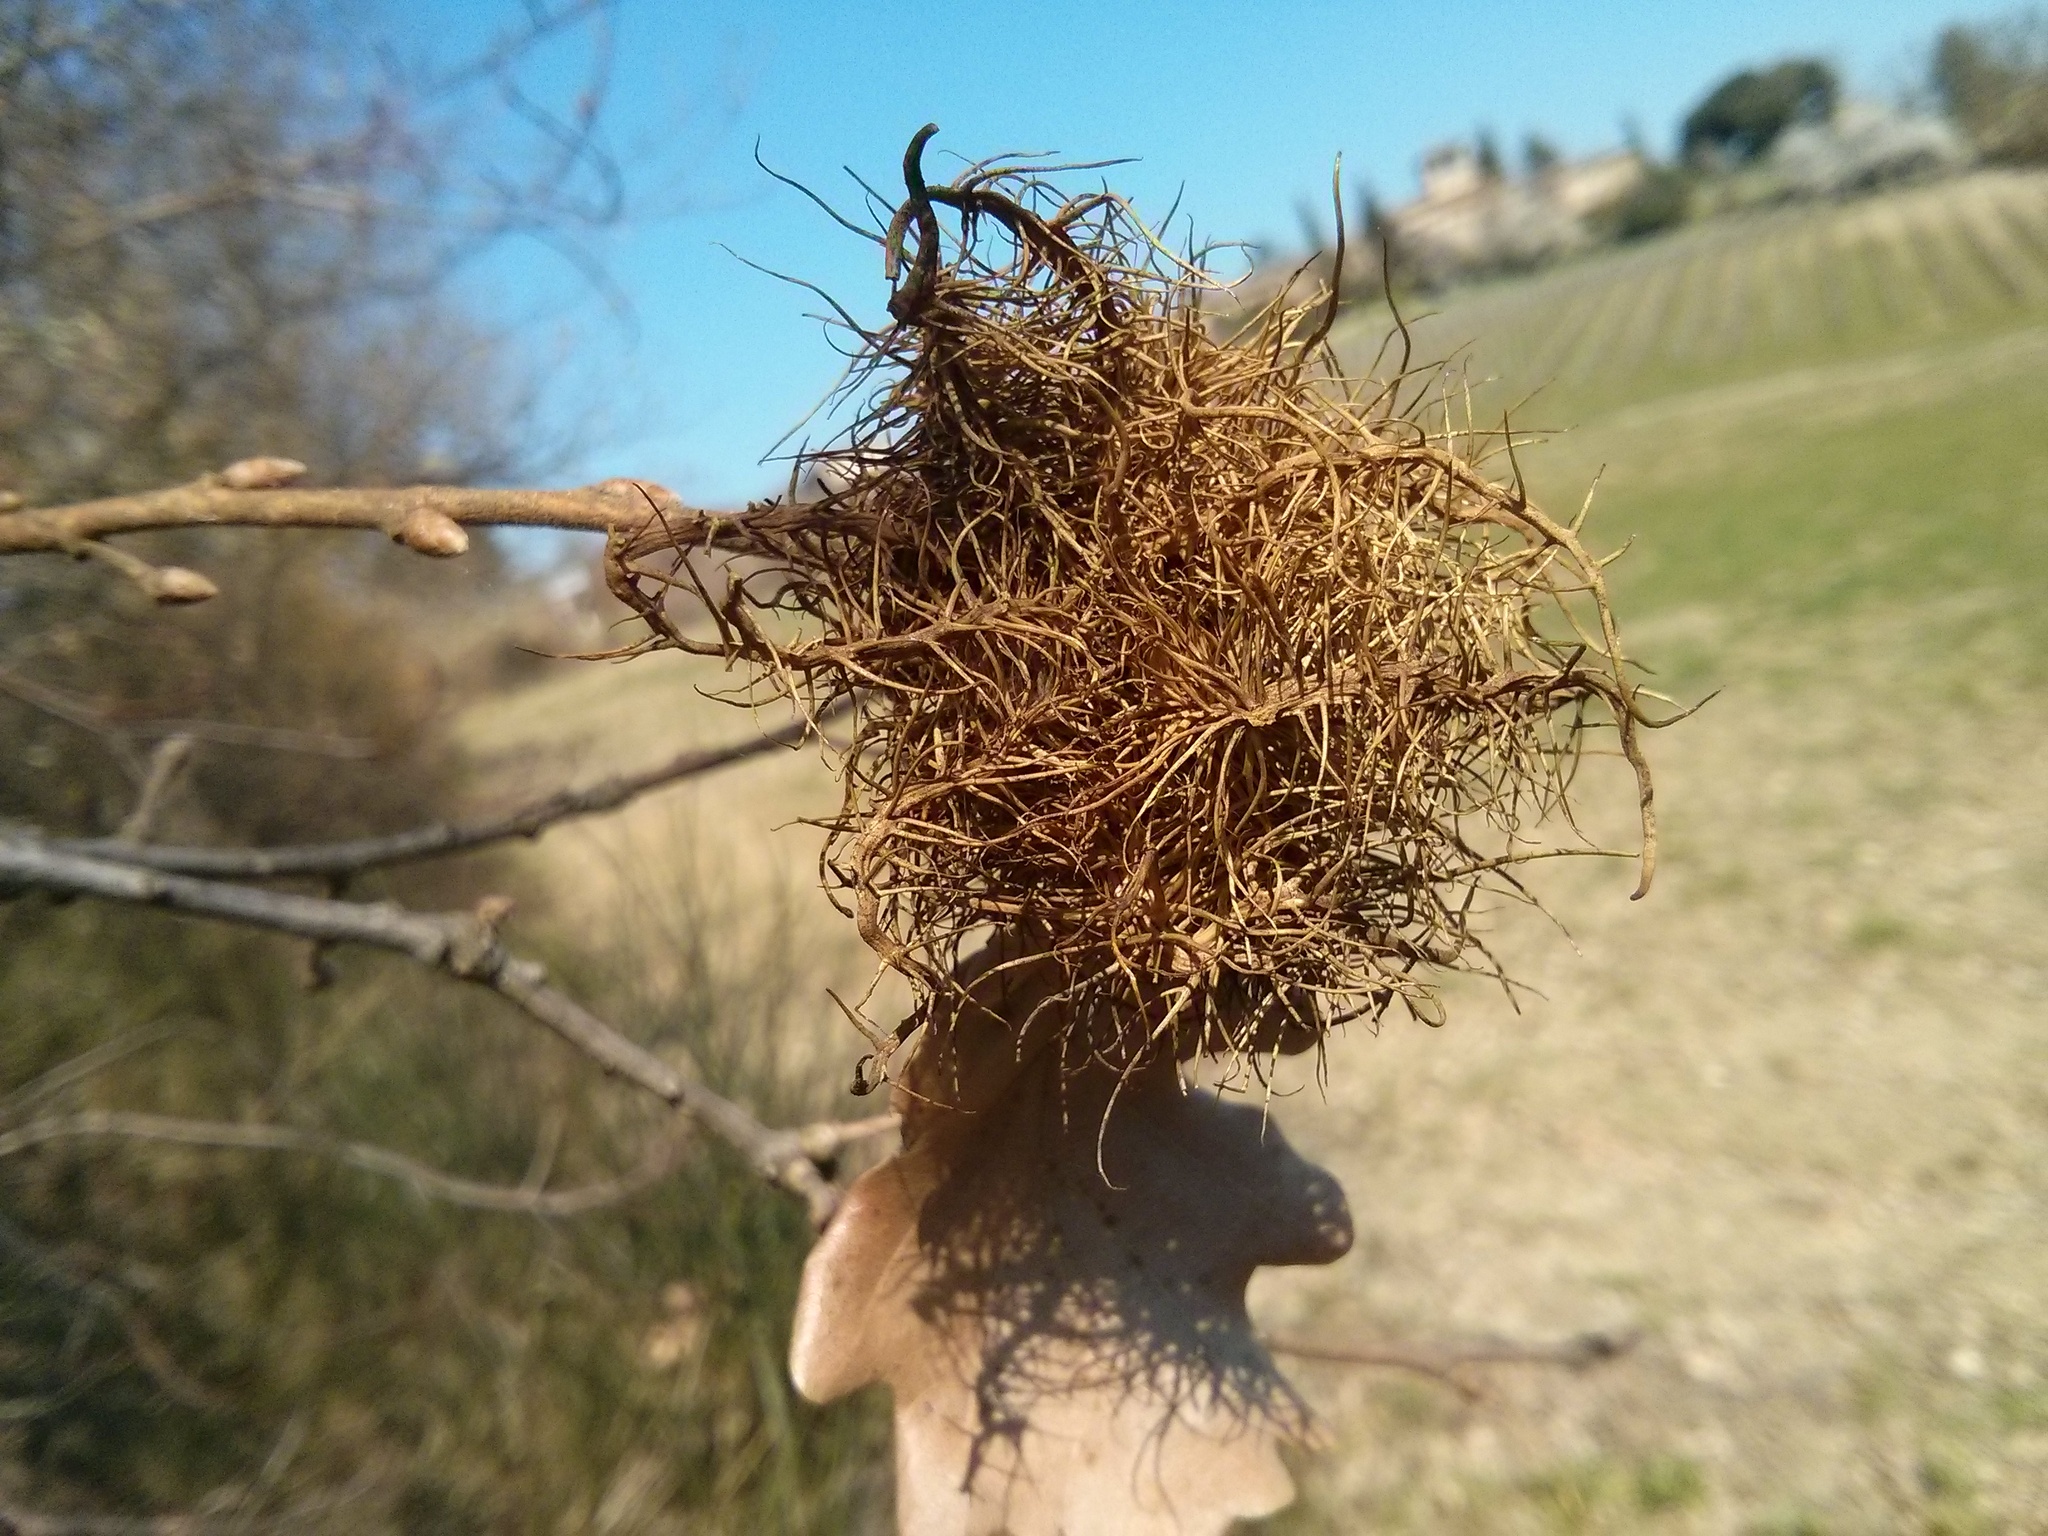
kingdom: Animalia
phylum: Arthropoda
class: Insecta
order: Hymenoptera
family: Cynipidae
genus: Andricus
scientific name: Andricus caputmedusae
